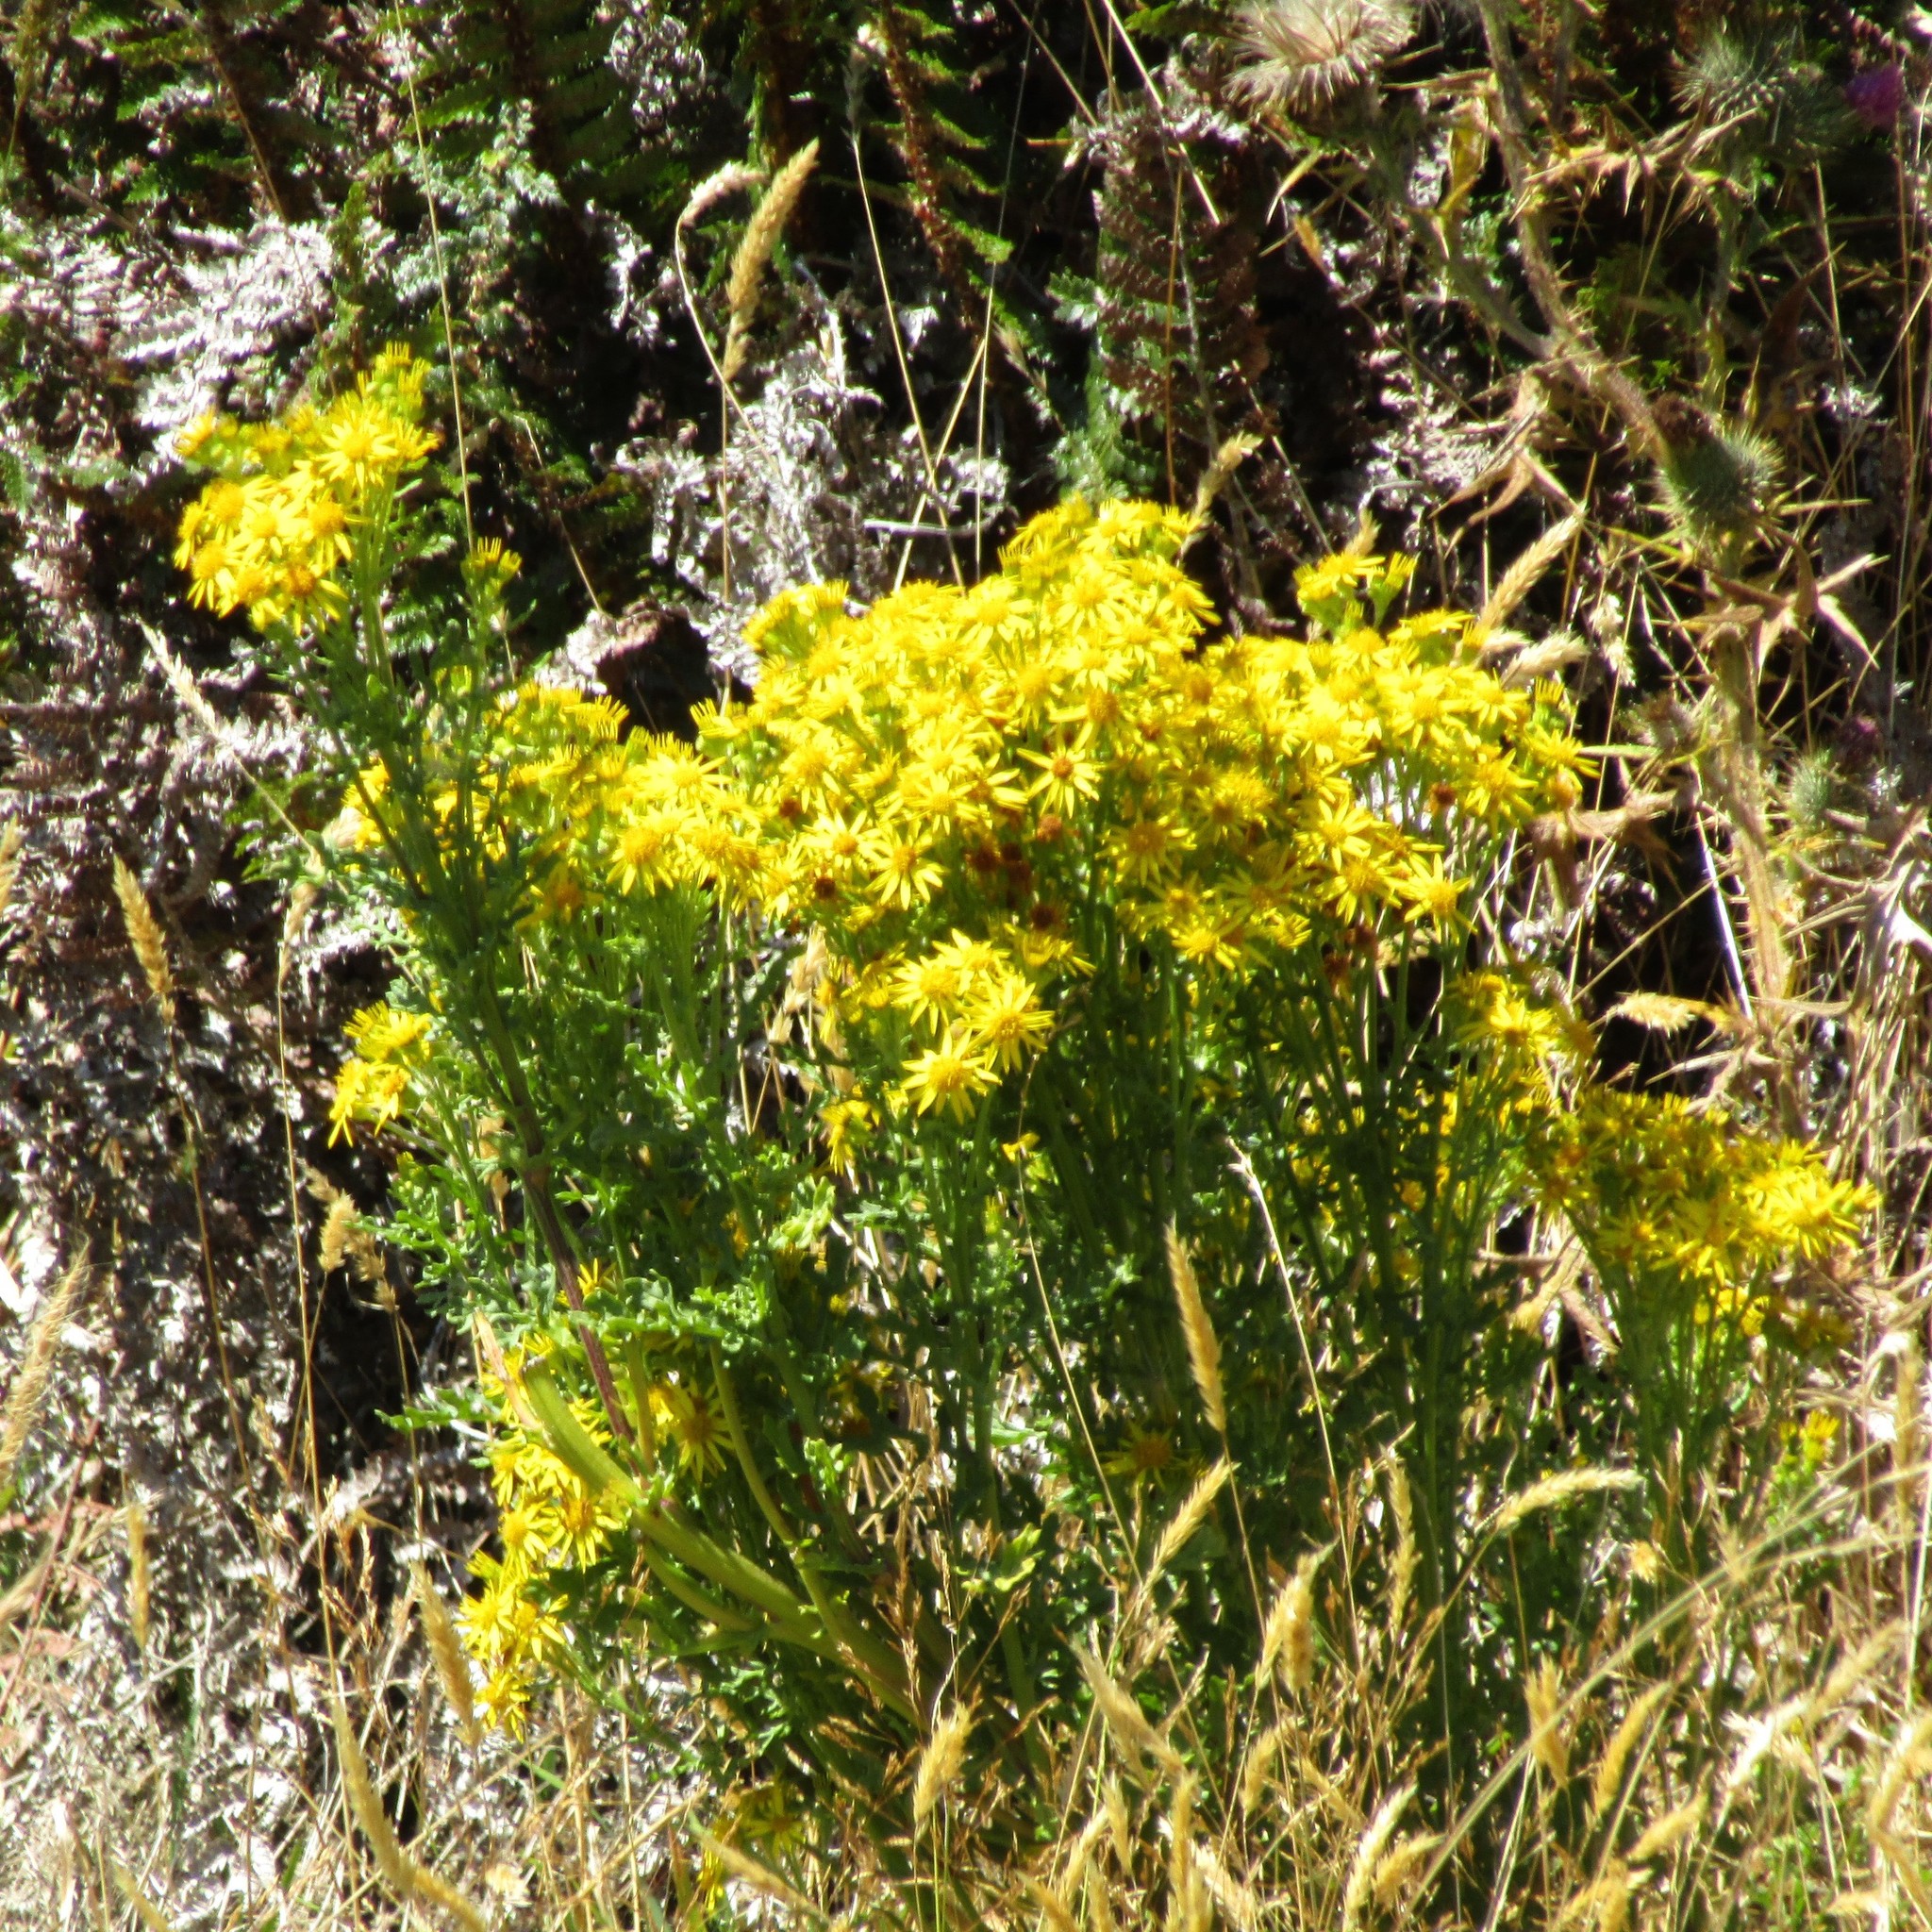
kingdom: Plantae
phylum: Tracheophyta
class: Magnoliopsida
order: Asterales
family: Asteraceae
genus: Jacobaea
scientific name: Jacobaea vulgaris
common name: Stinking willie
